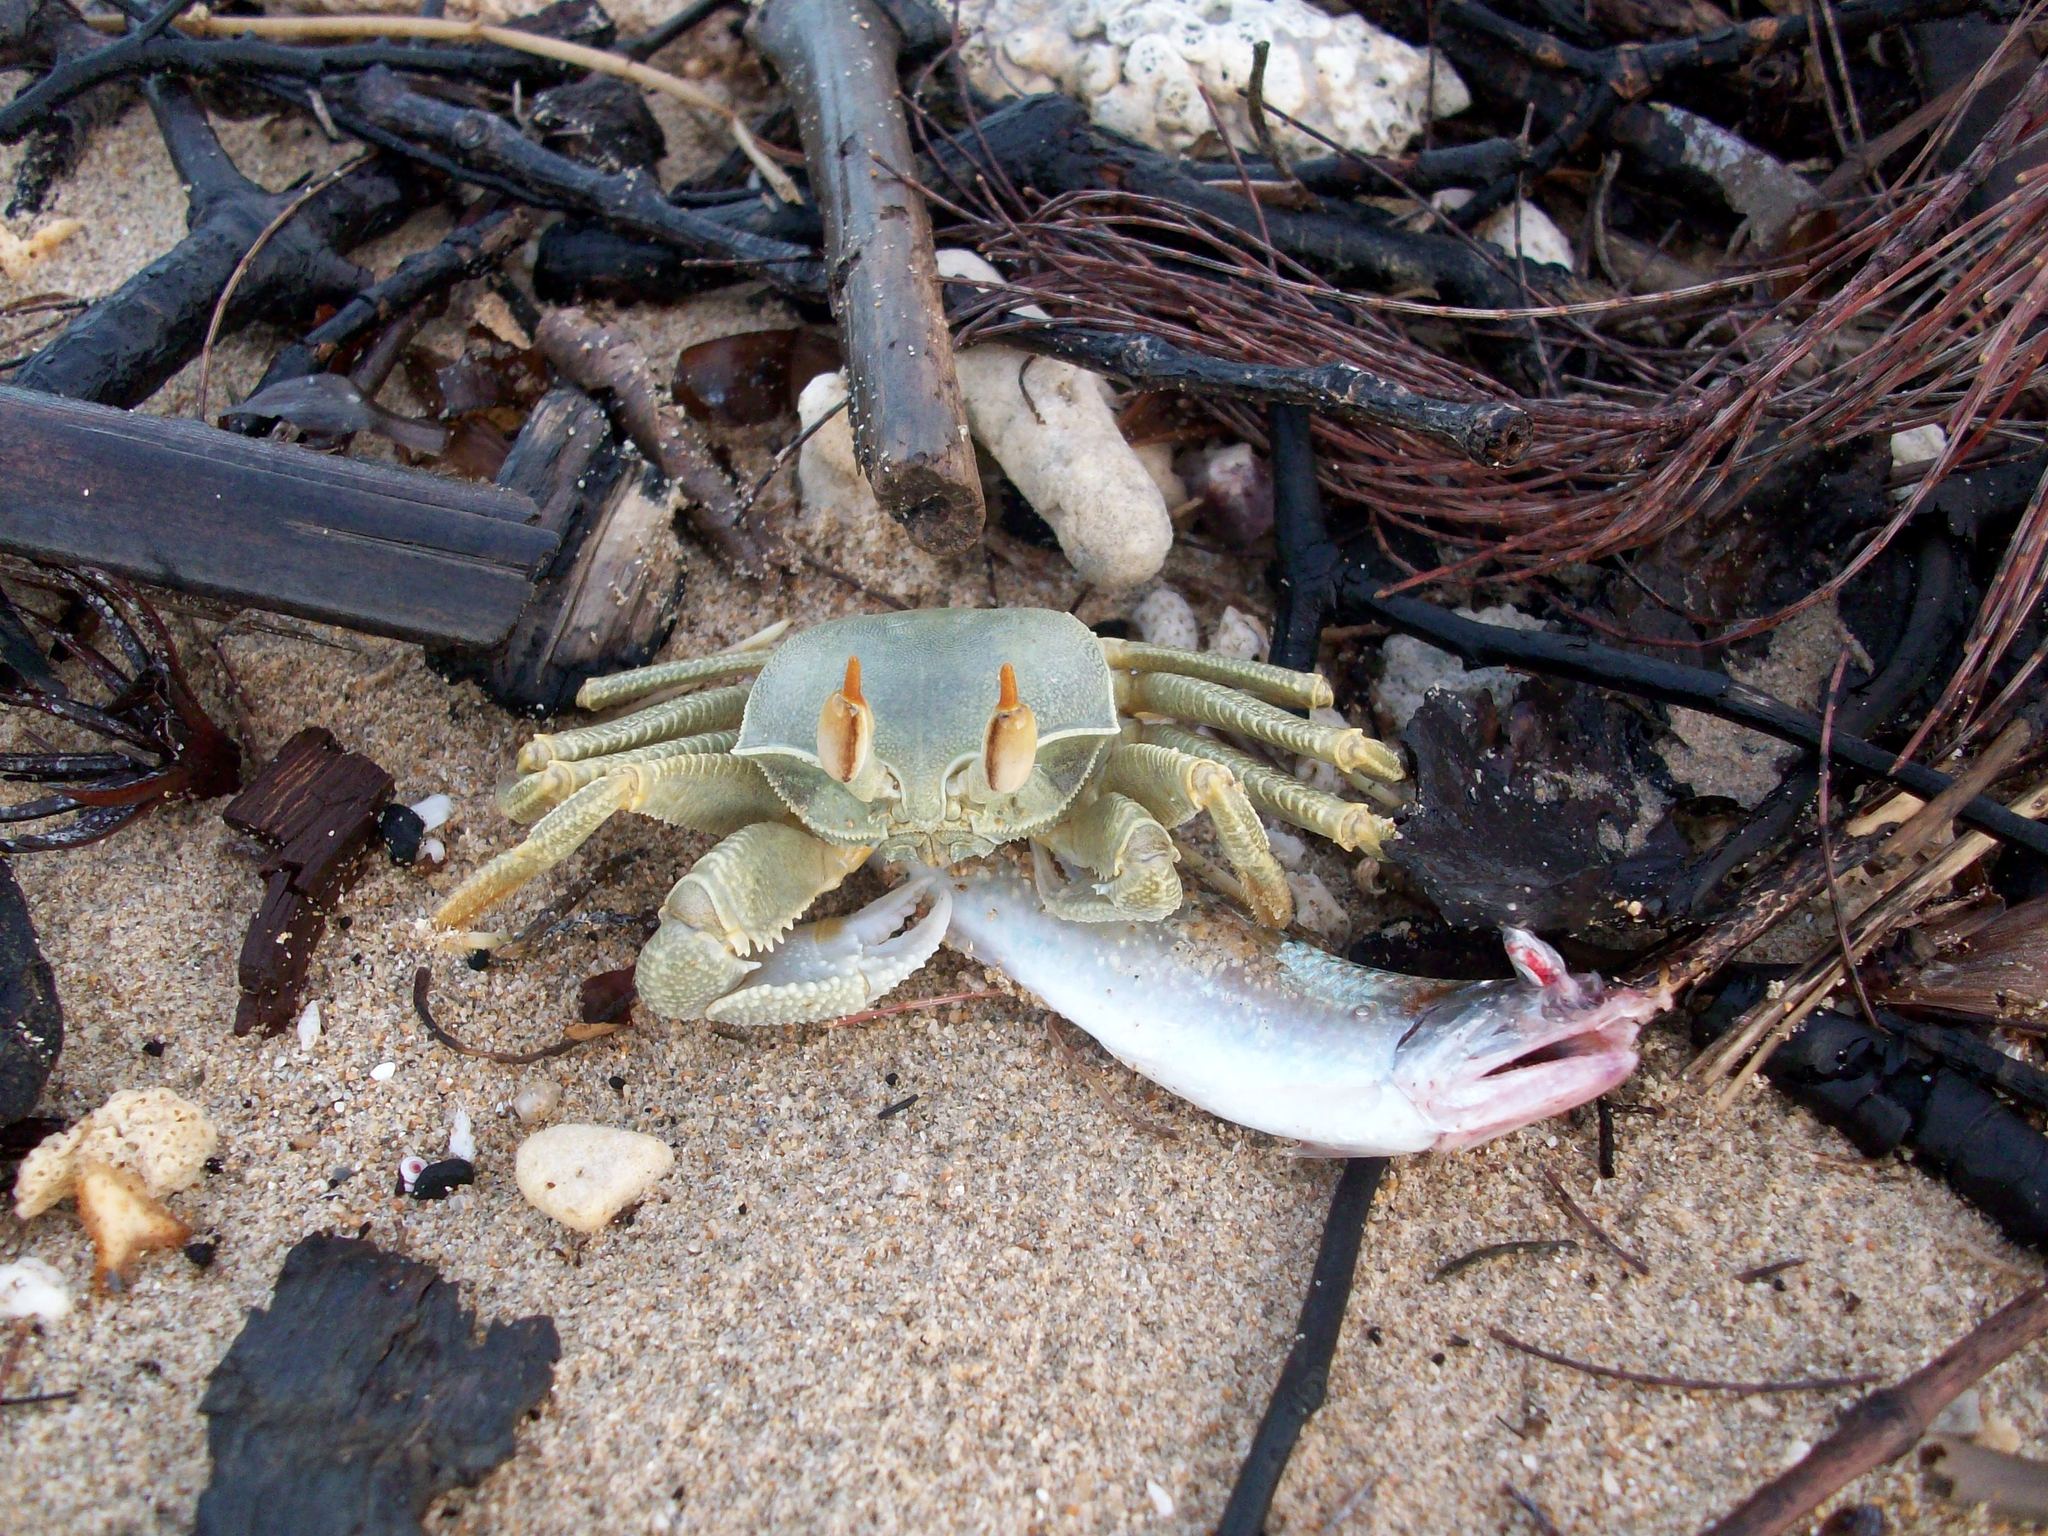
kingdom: Animalia
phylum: Arthropoda
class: Malacostraca
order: Decapoda
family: Ocypodidae
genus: Ocypode
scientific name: Ocypode ceratophthalmus
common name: Indo-pacific ghost crab
